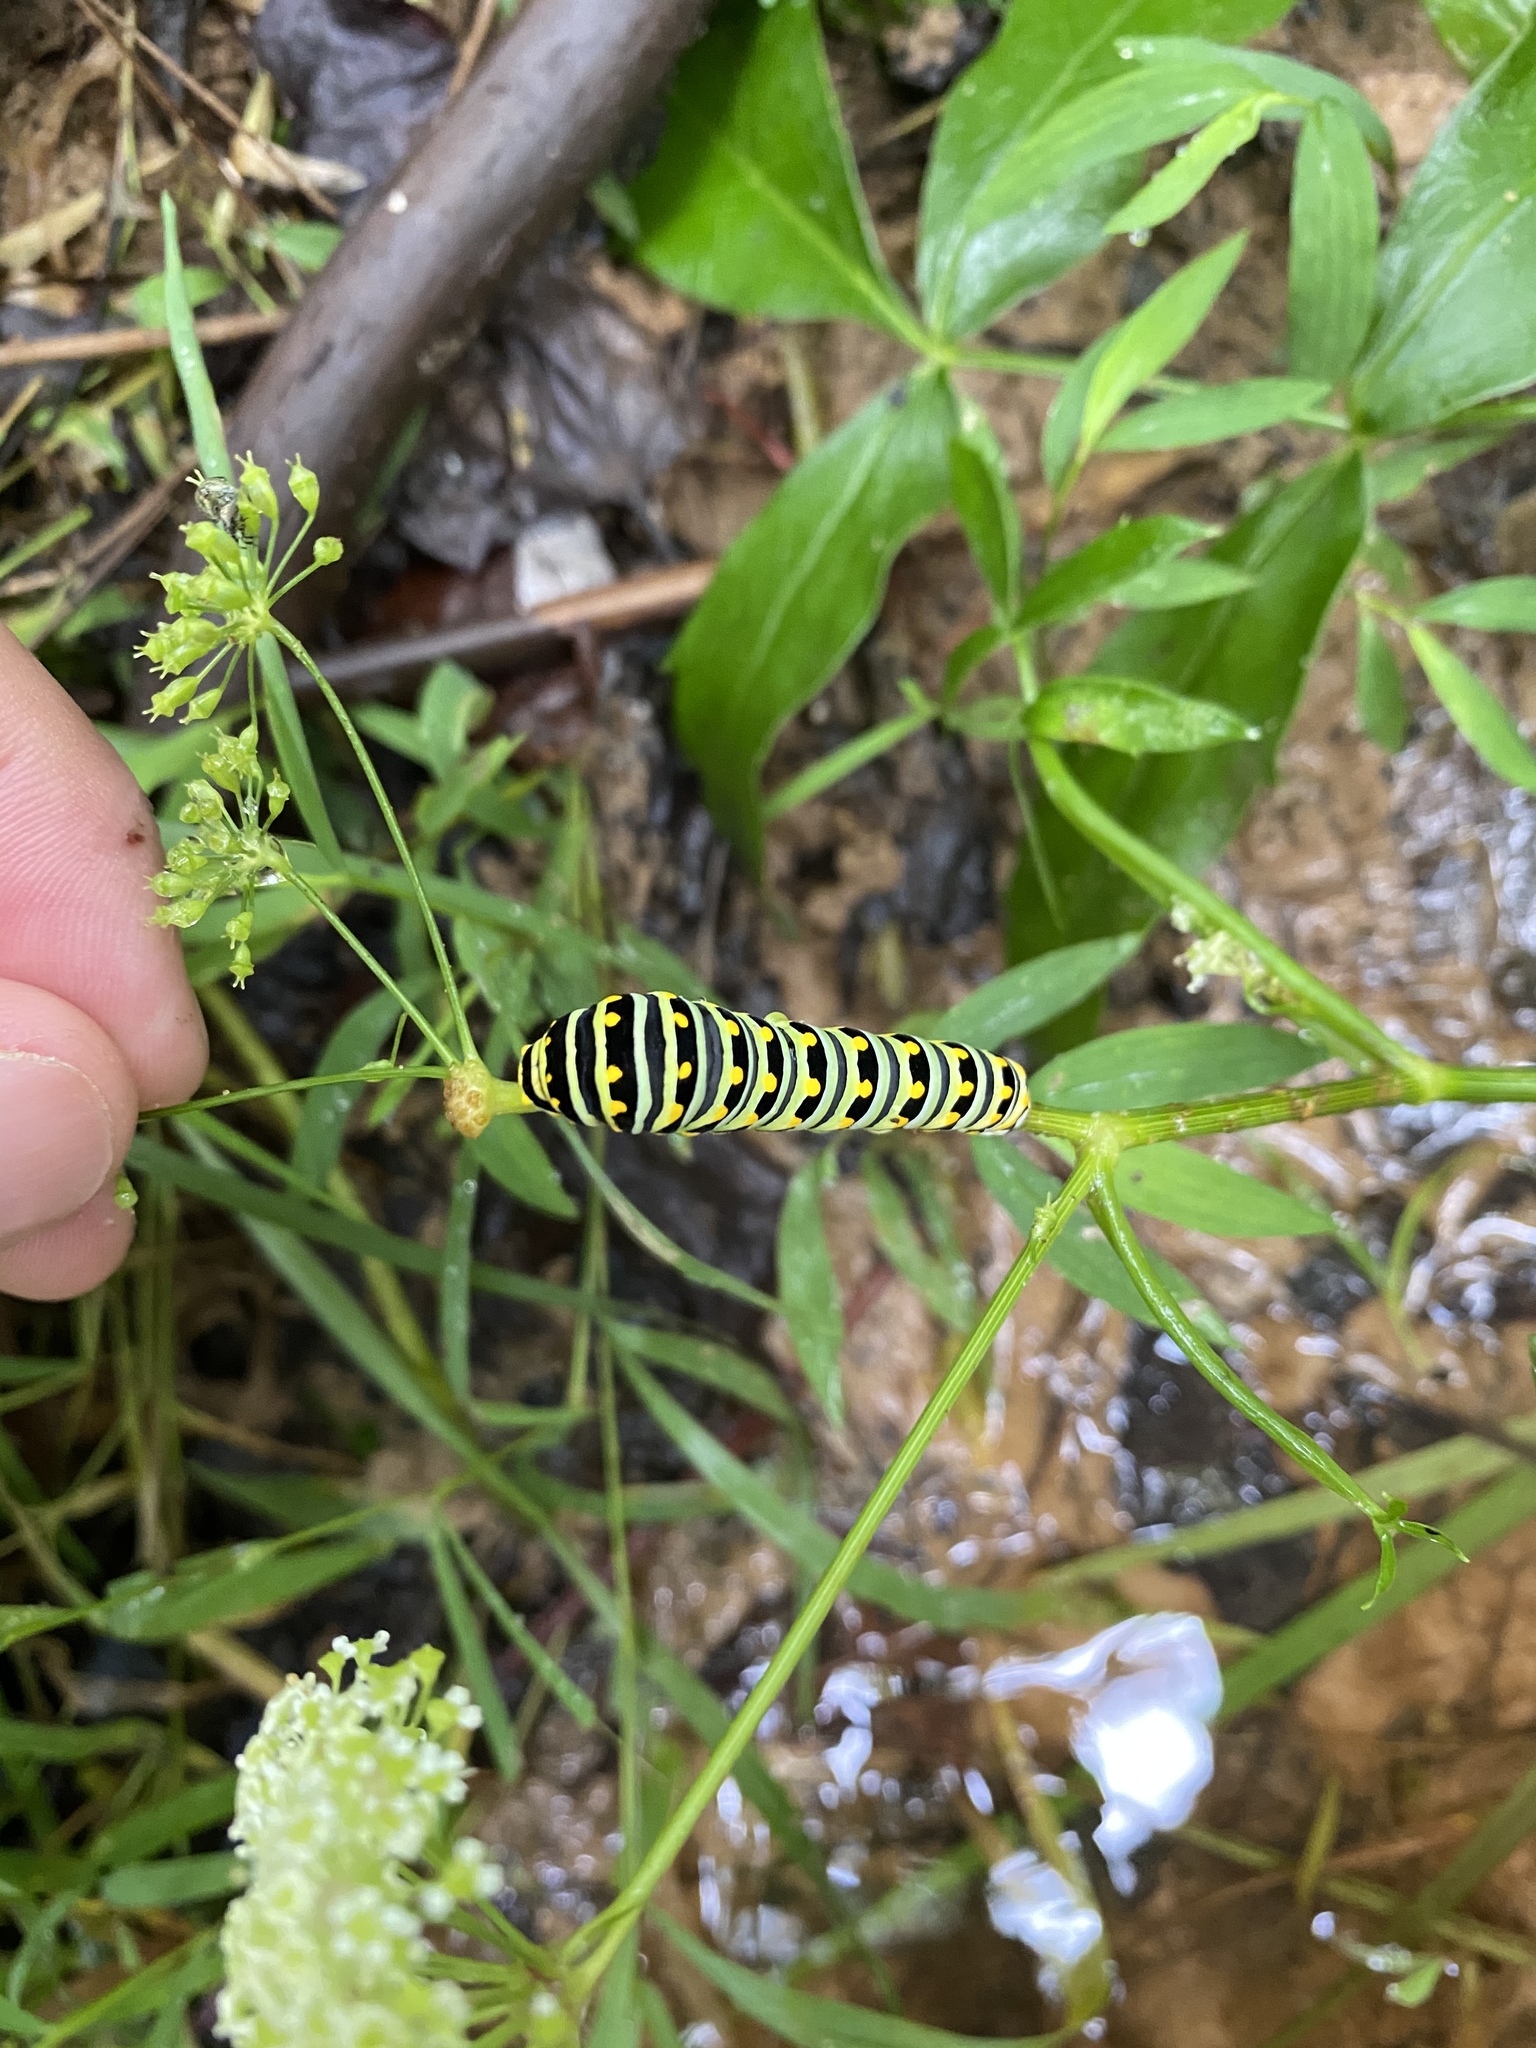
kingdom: Animalia
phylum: Arthropoda
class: Insecta
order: Lepidoptera
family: Papilionidae
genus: Papilio
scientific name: Papilio polyxenes
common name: Black swallowtail
